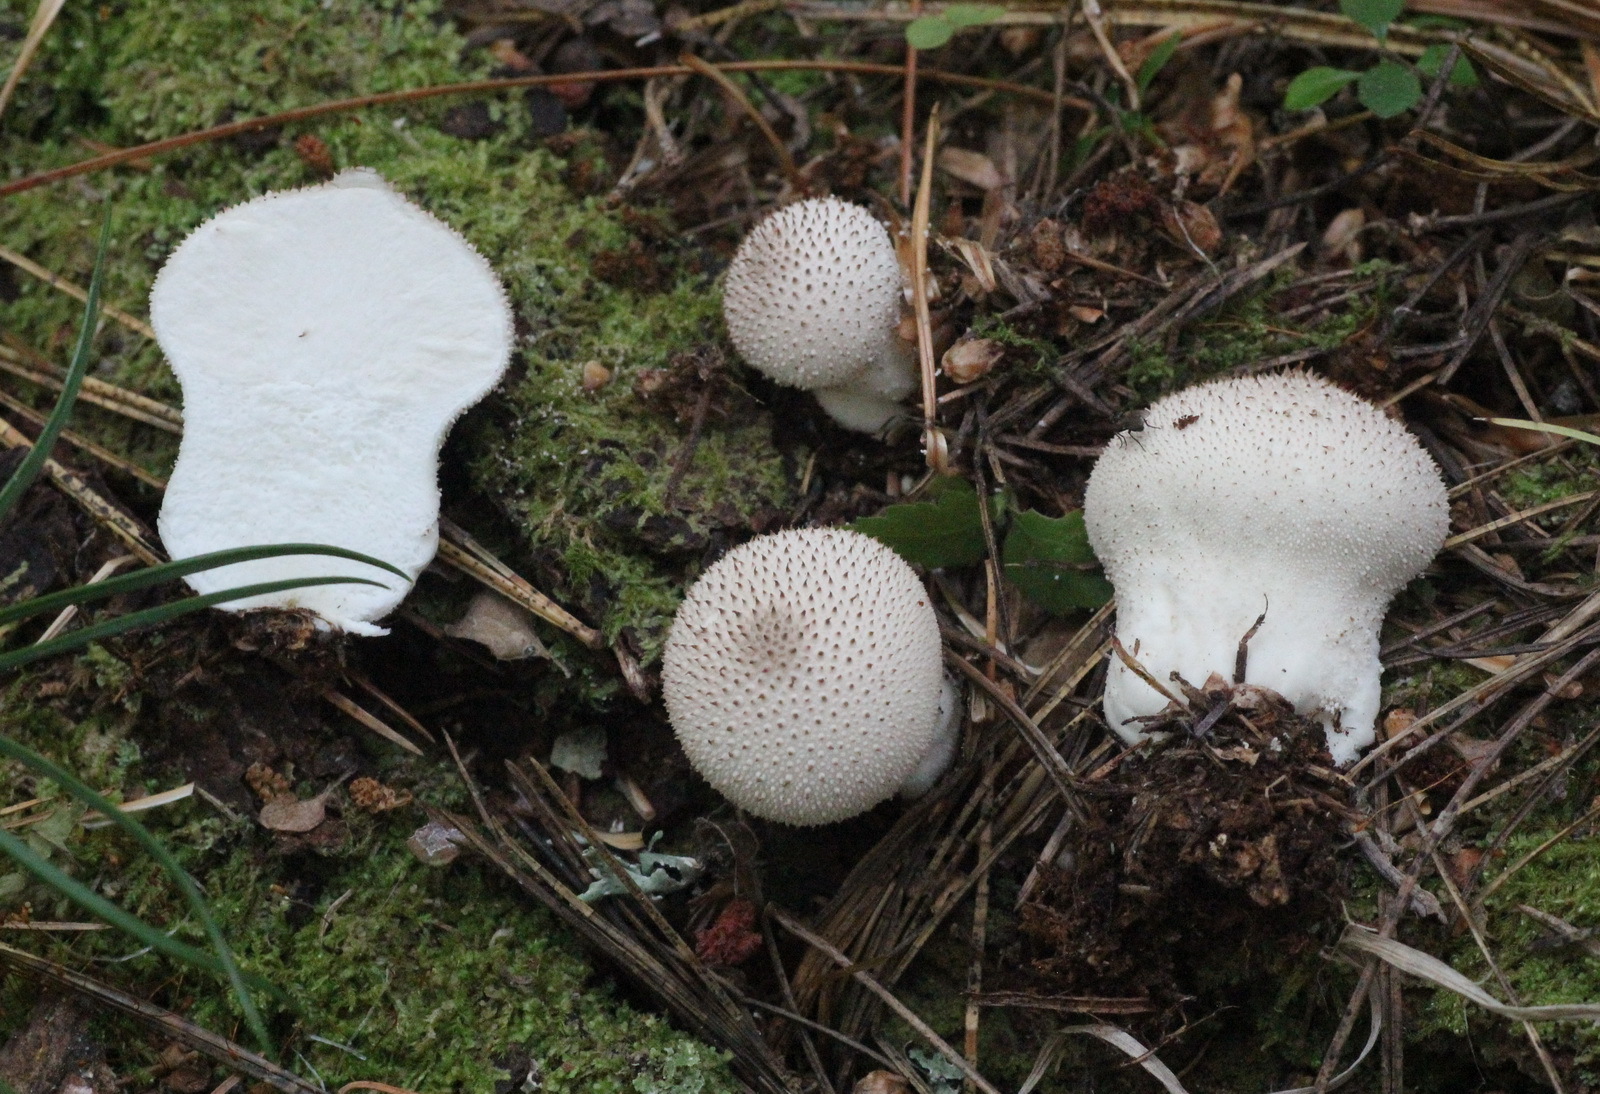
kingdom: Fungi
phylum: Basidiomycota
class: Agaricomycetes
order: Agaricales
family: Lycoperdaceae
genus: Lycoperdon
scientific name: Lycoperdon perlatum
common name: Common puffball
